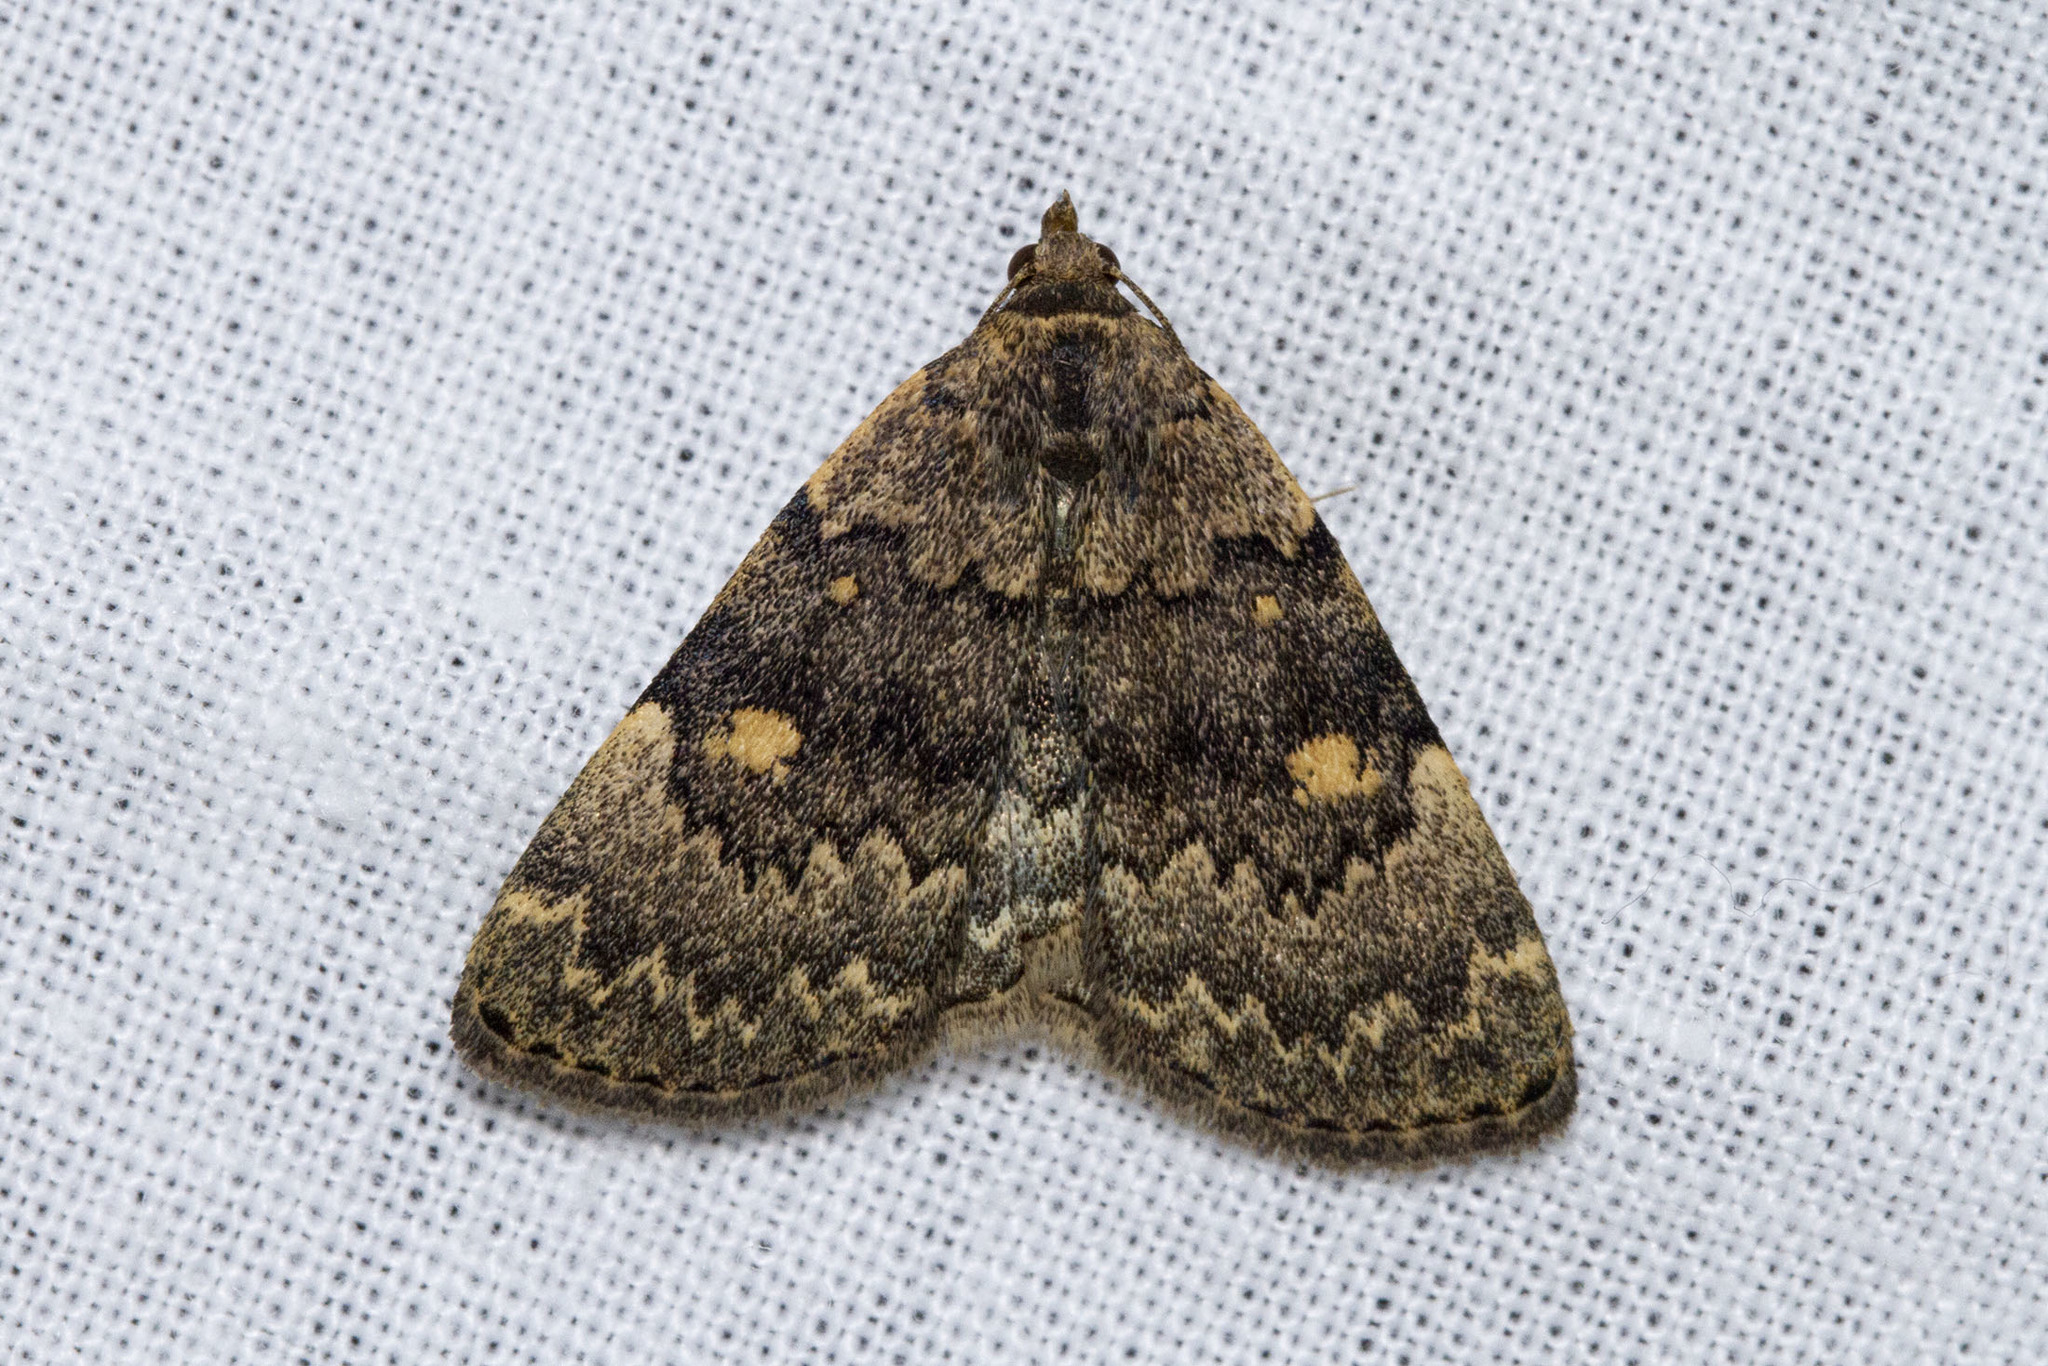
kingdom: Animalia
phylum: Arthropoda
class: Insecta
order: Lepidoptera
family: Erebidae
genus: Idia
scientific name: Idia aemula
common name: Common idia moth
